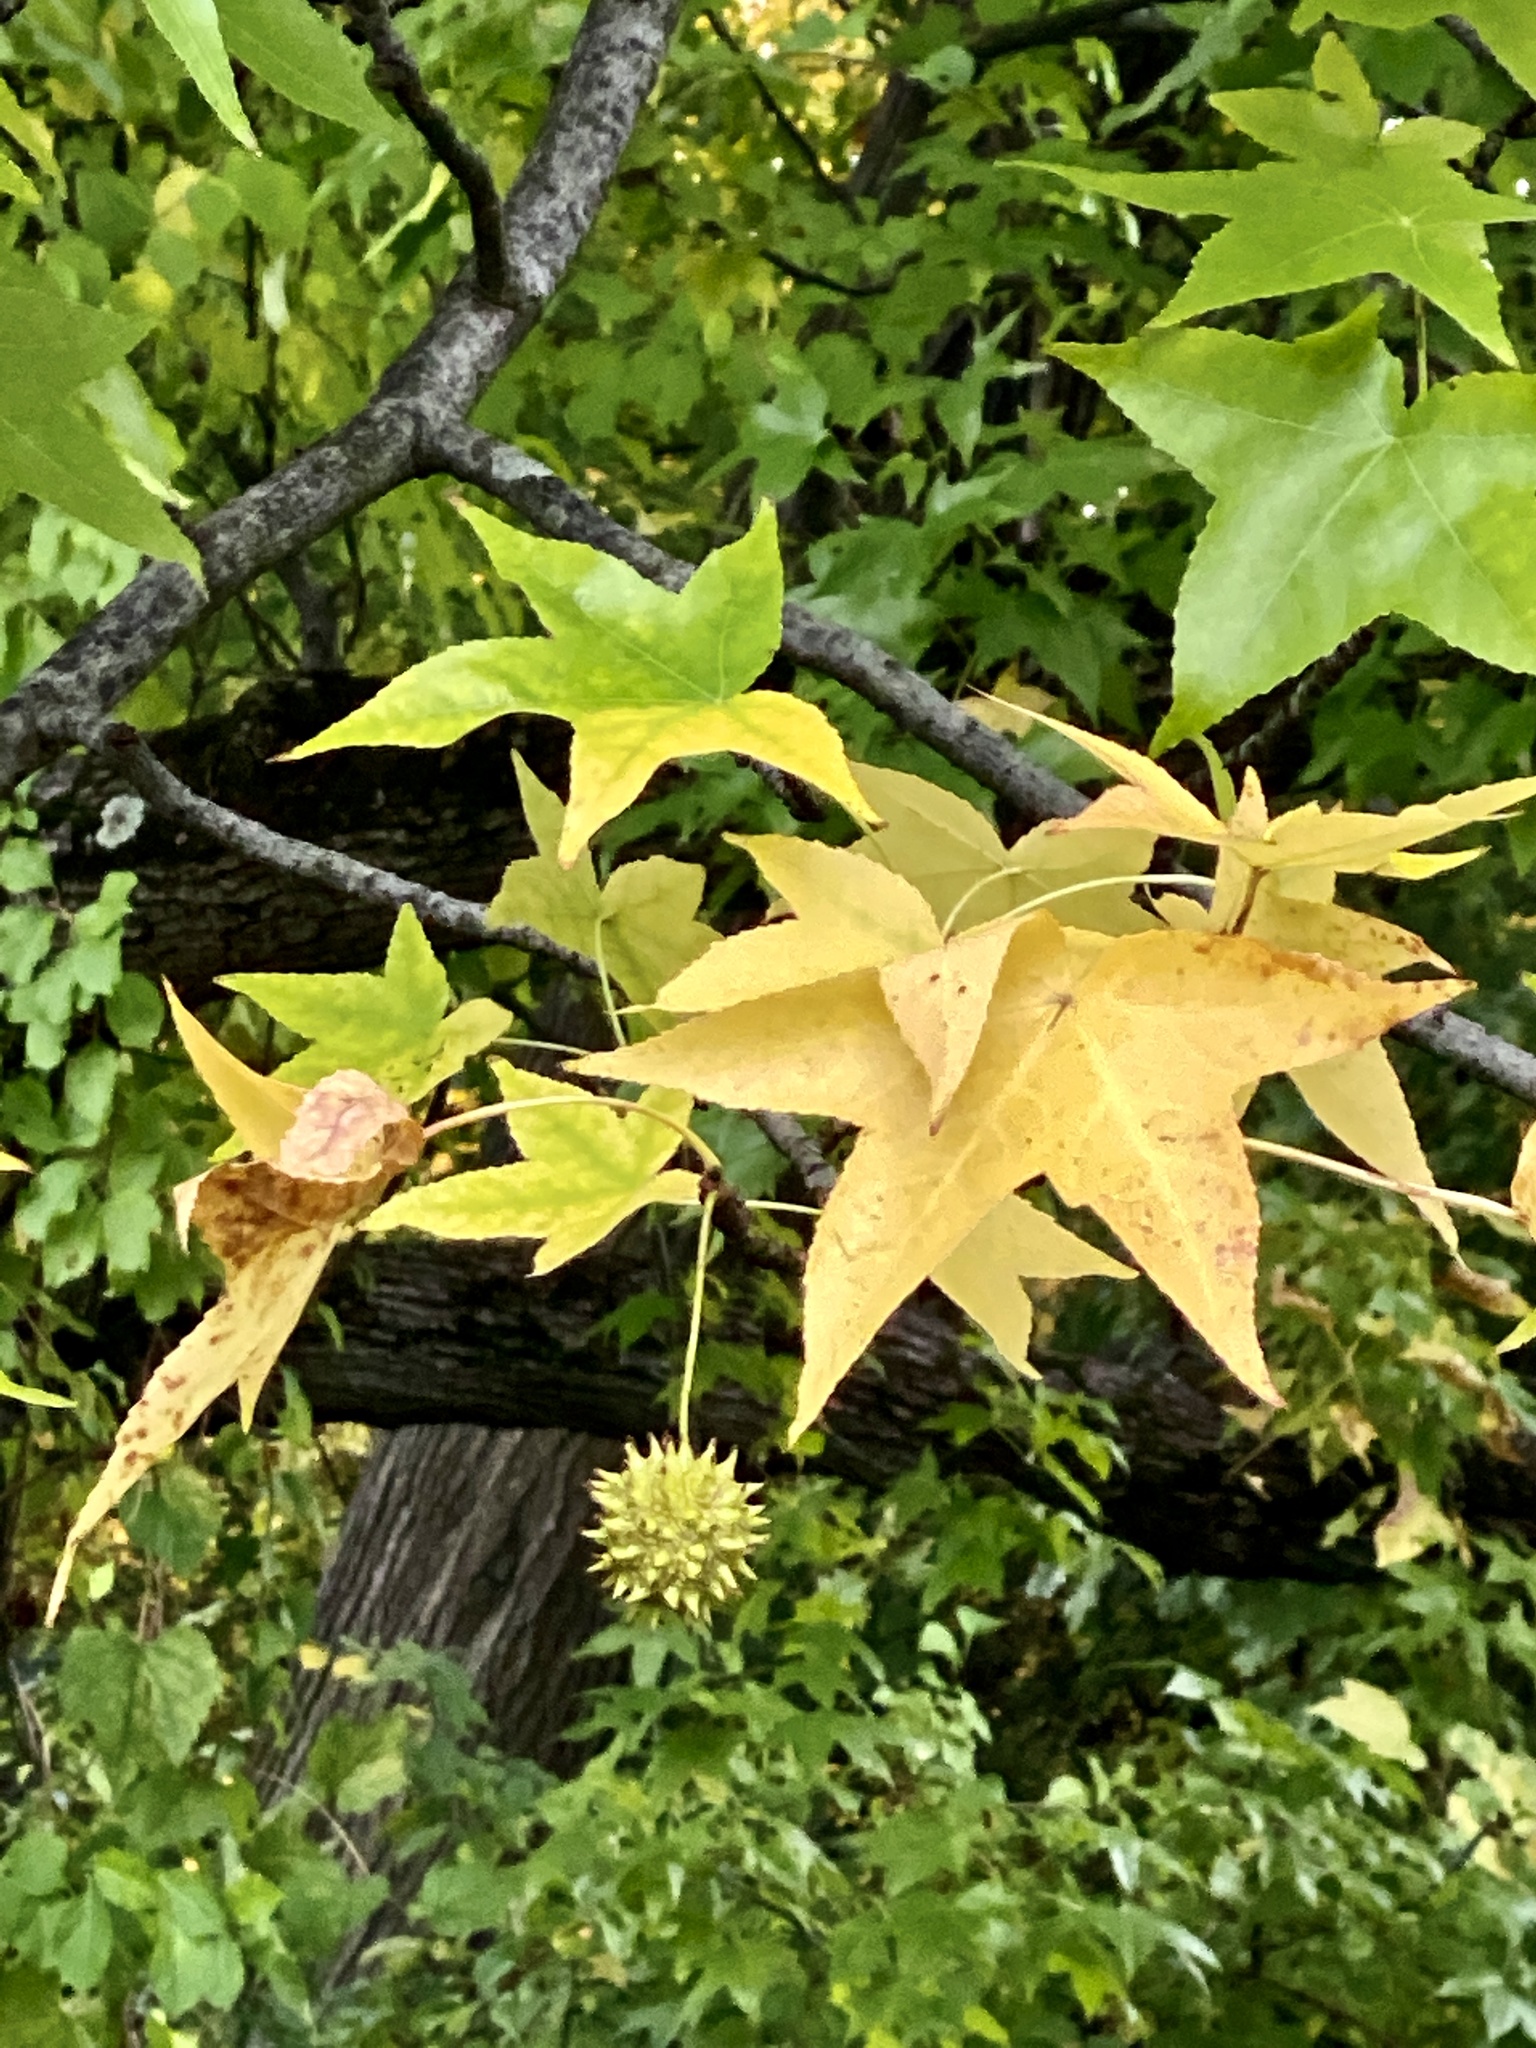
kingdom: Plantae
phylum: Tracheophyta
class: Magnoliopsida
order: Saxifragales
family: Altingiaceae
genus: Liquidambar
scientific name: Liquidambar styraciflua
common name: Sweet gum
